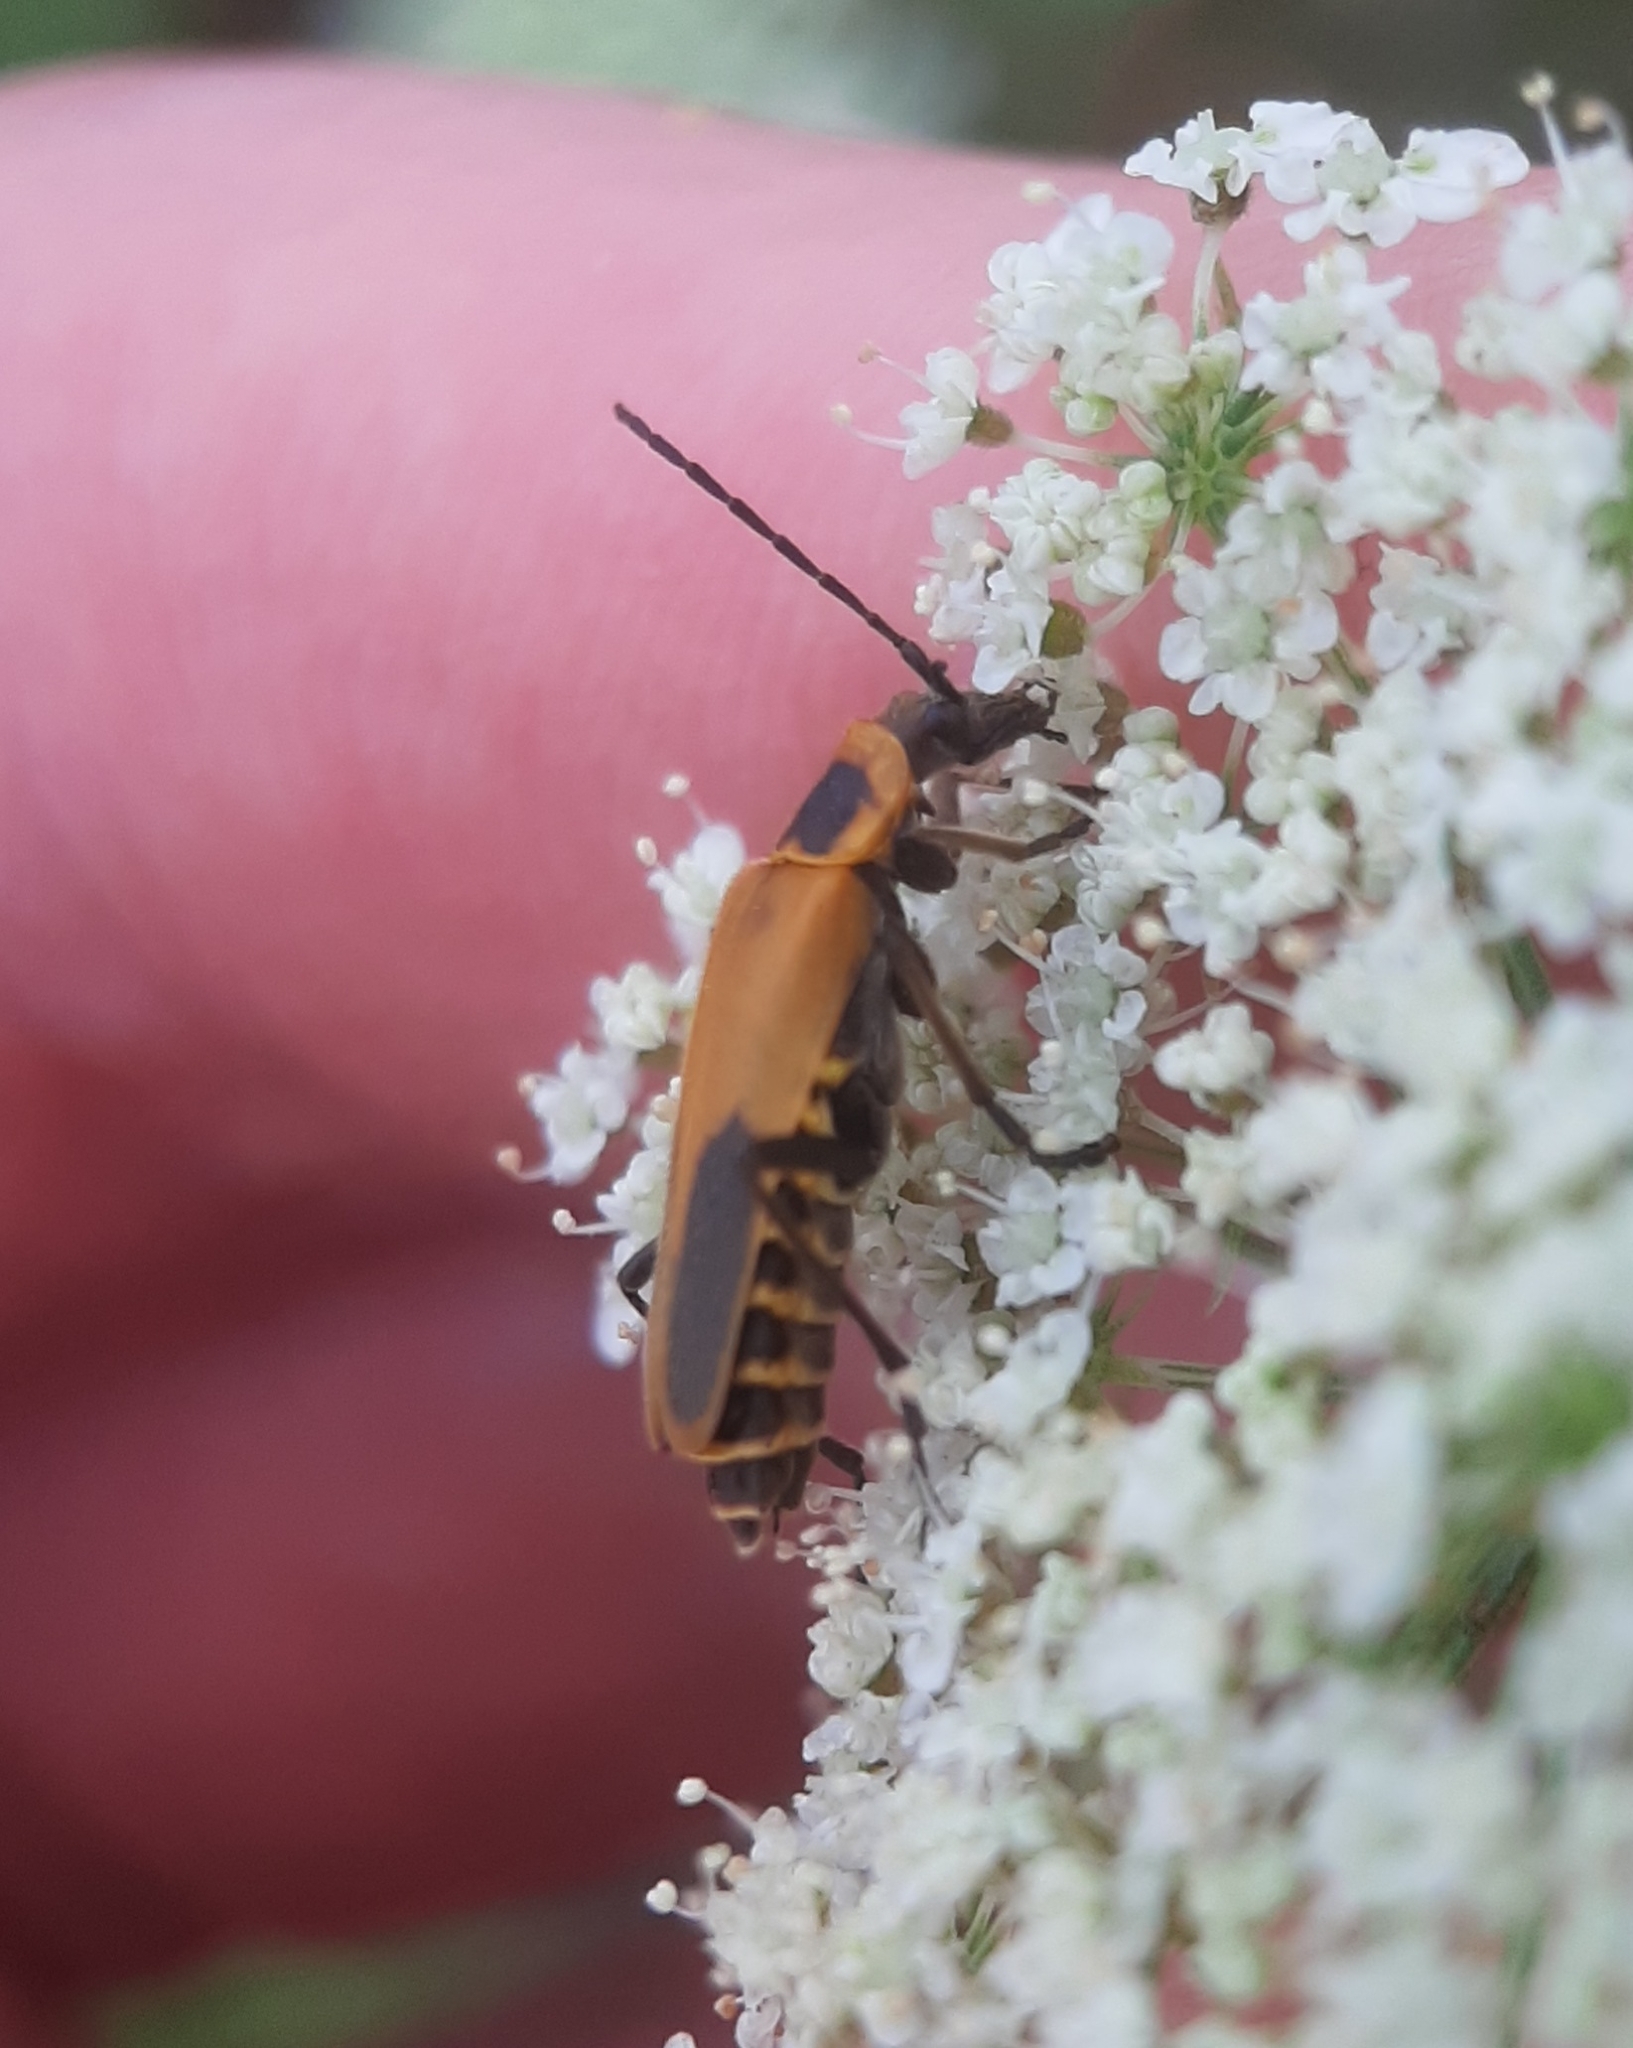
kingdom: Animalia
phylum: Arthropoda
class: Insecta
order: Coleoptera
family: Cantharidae
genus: Chauliognathus
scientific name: Chauliognathus pensylvanicus
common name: Goldenrod soldier beetle
